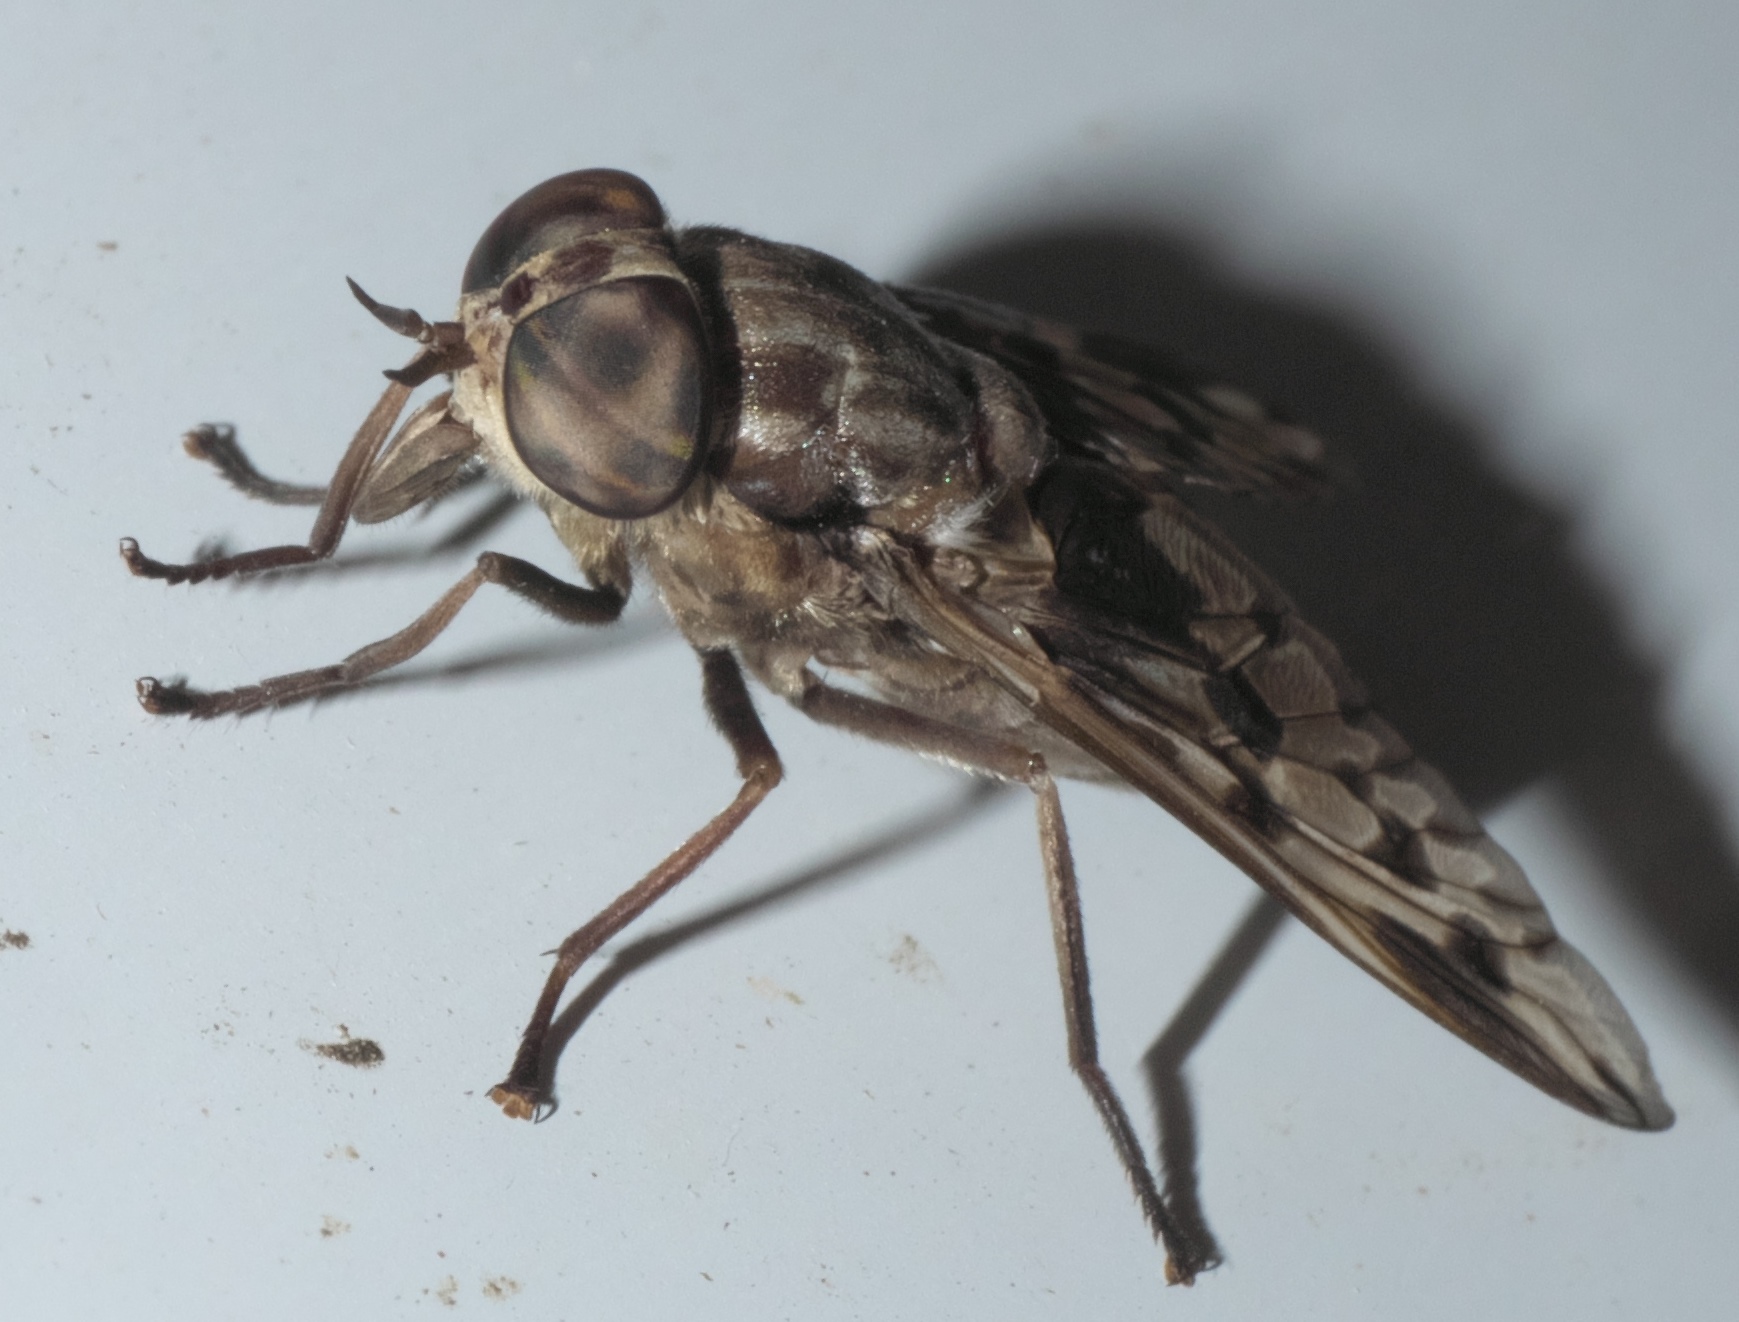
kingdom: Animalia
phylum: Arthropoda
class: Insecta
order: Diptera
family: Tabanidae
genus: Tabanus
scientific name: Tabanus venustus
